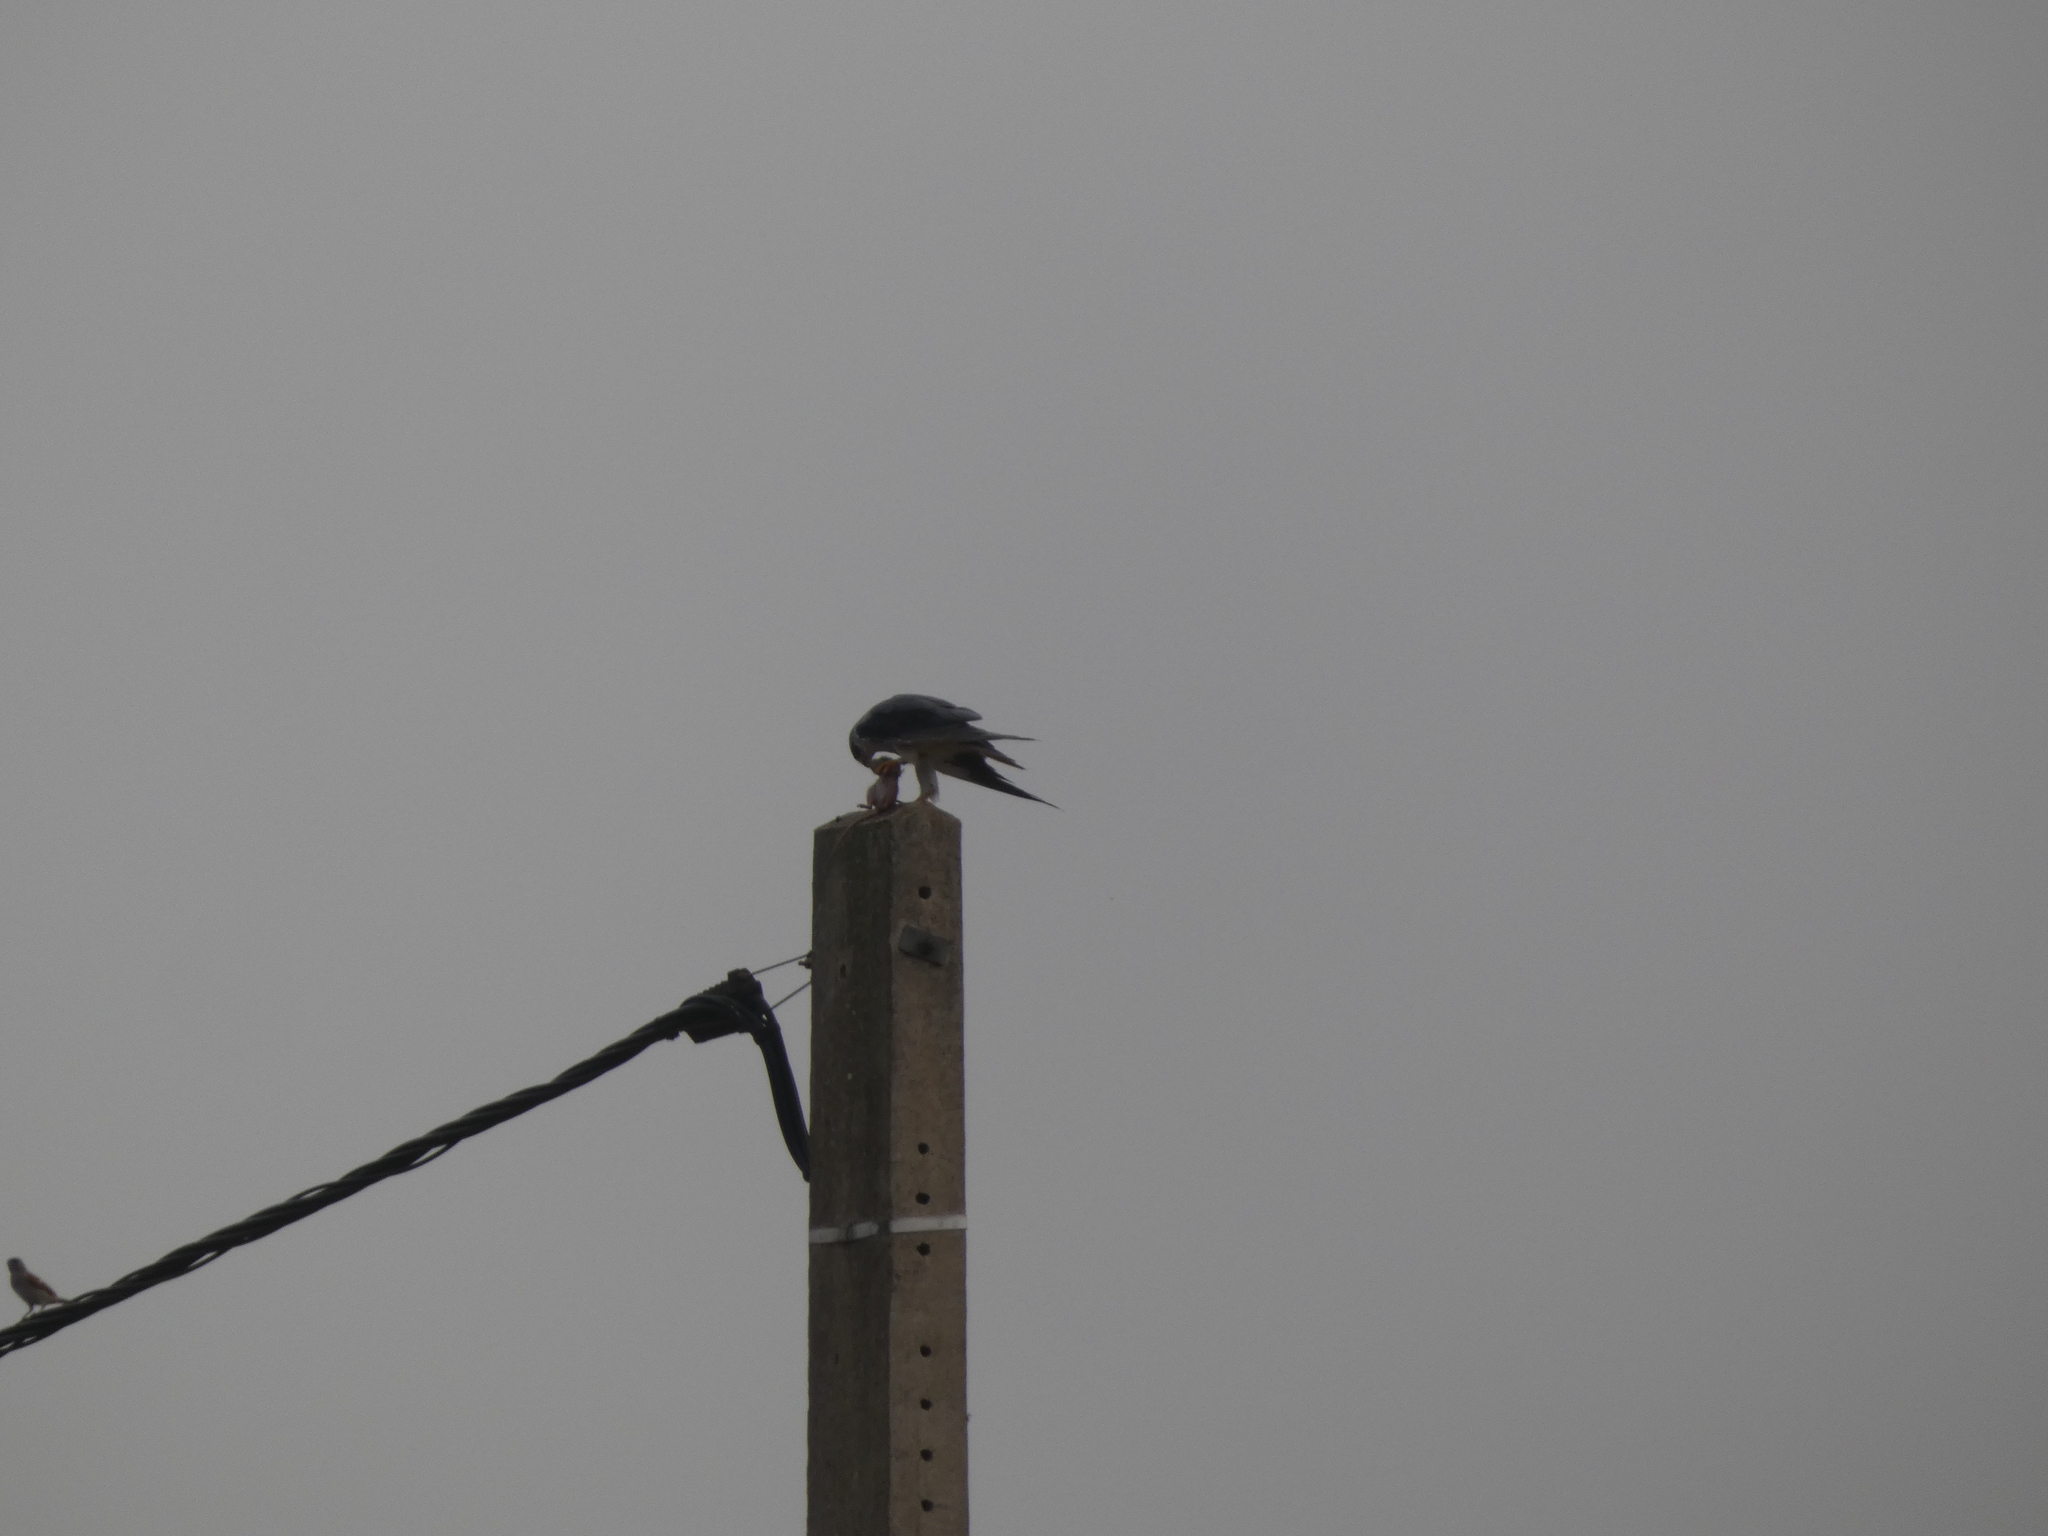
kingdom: Animalia
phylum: Chordata
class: Aves
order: Accipitriformes
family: Accipitridae
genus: Elanus
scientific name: Elanus caeruleus
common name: Black-winged kite
